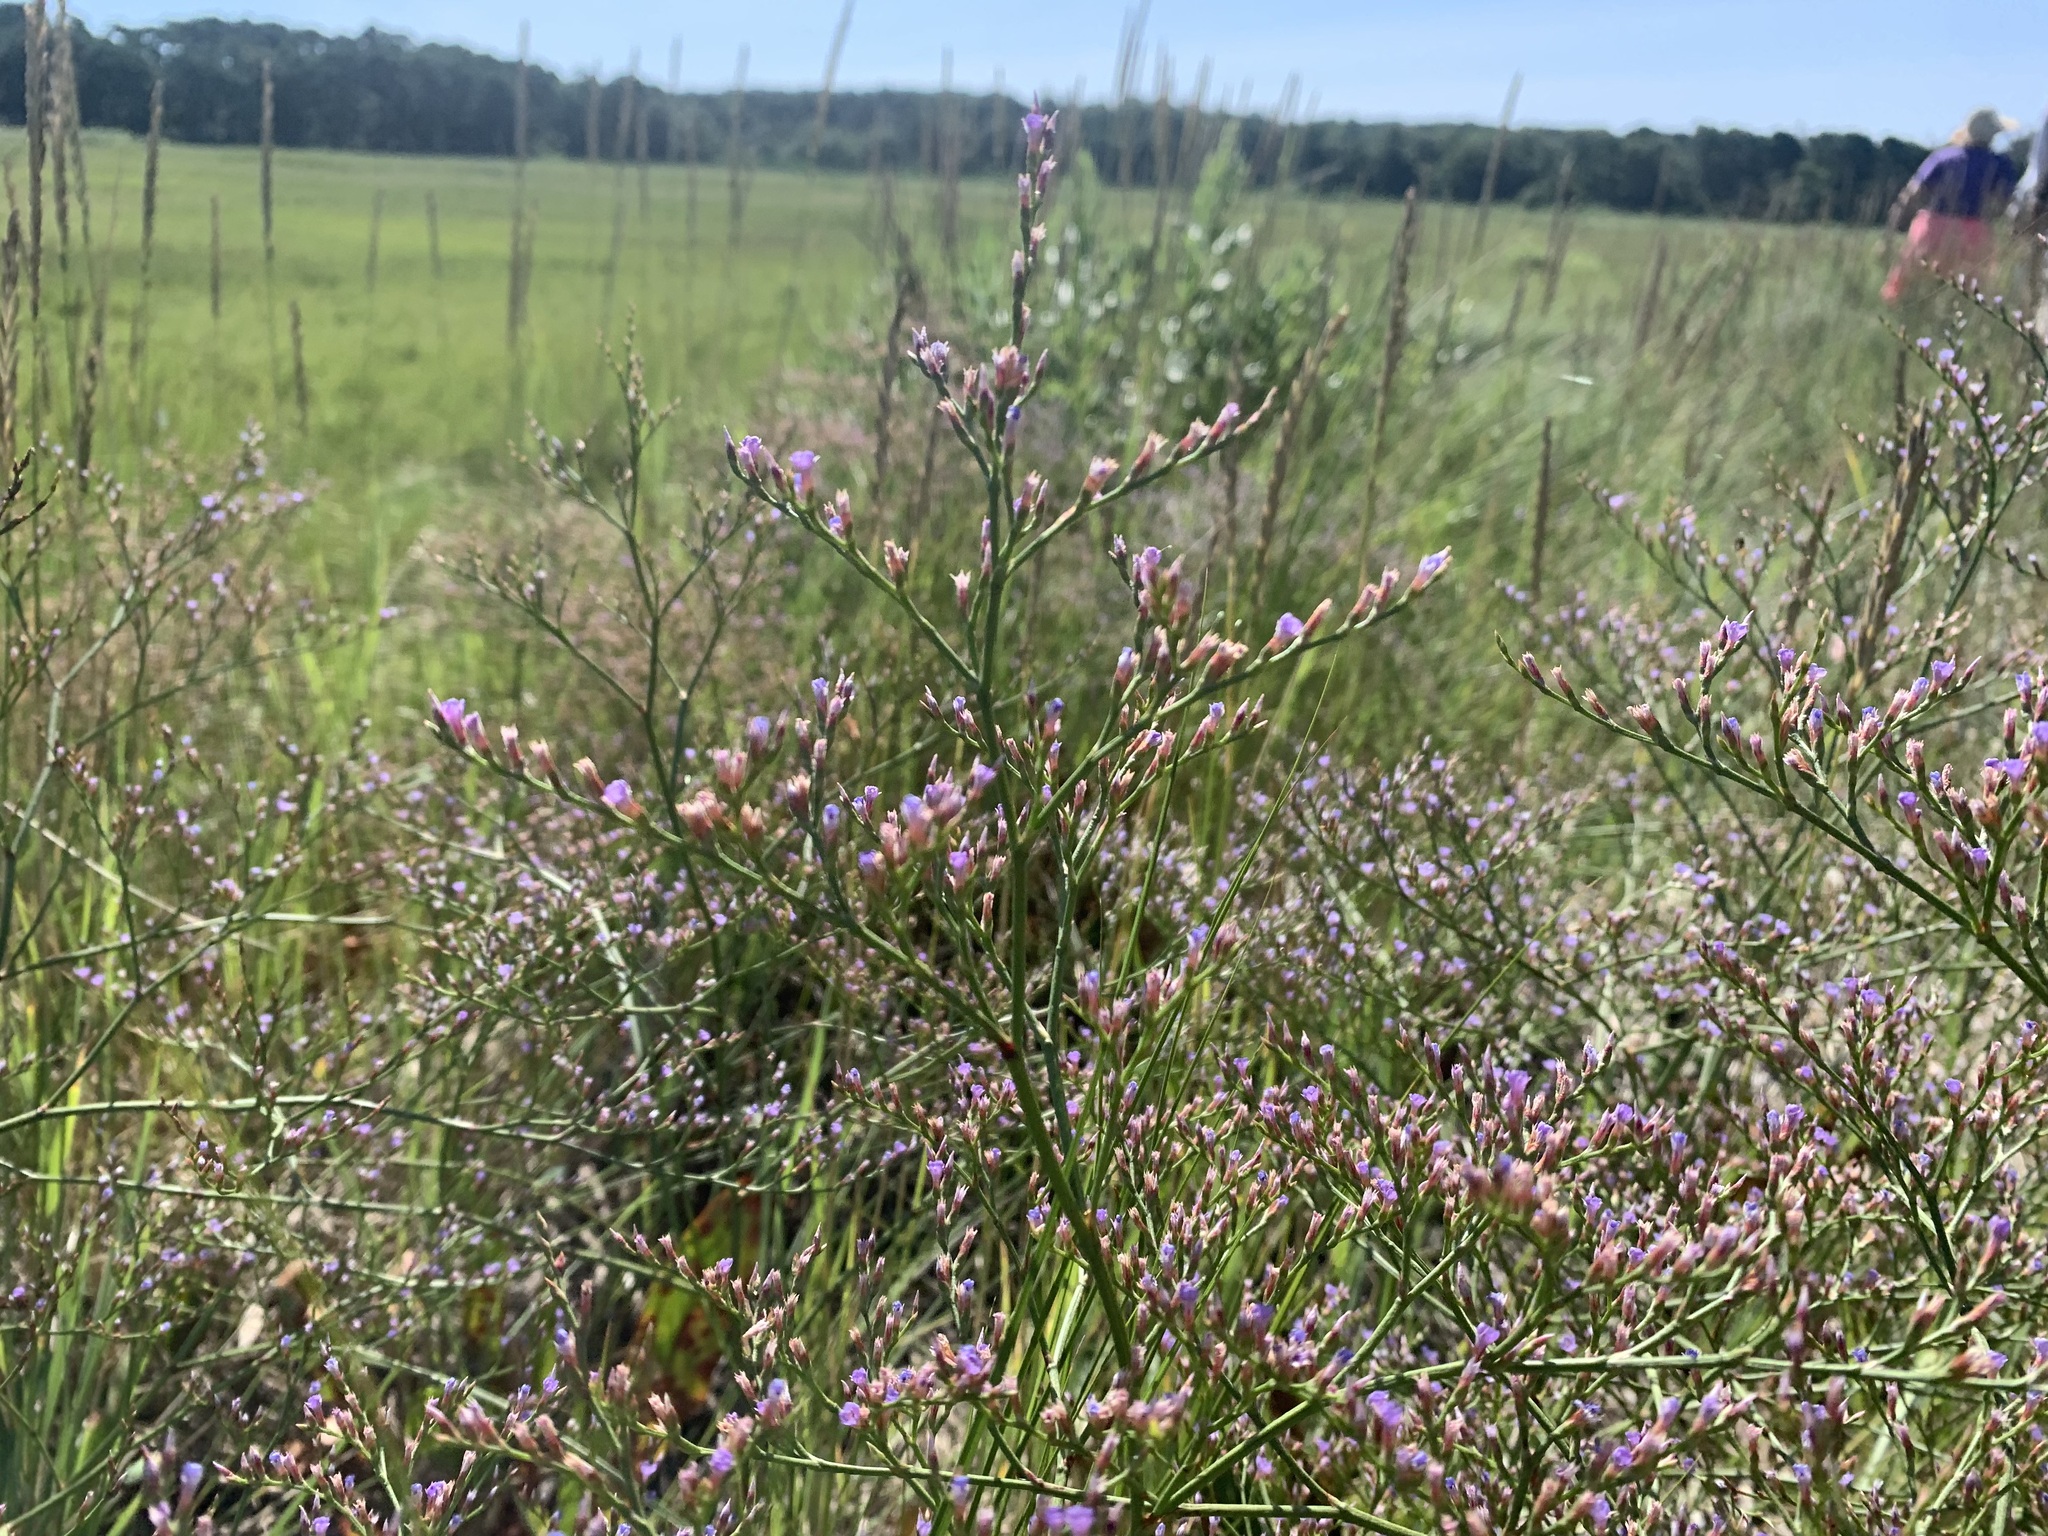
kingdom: Plantae
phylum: Tracheophyta
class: Magnoliopsida
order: Caryophyllales
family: Plumbaginaceae
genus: Limonium
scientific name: Limonium carolinianum
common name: Carolina sea lavender
